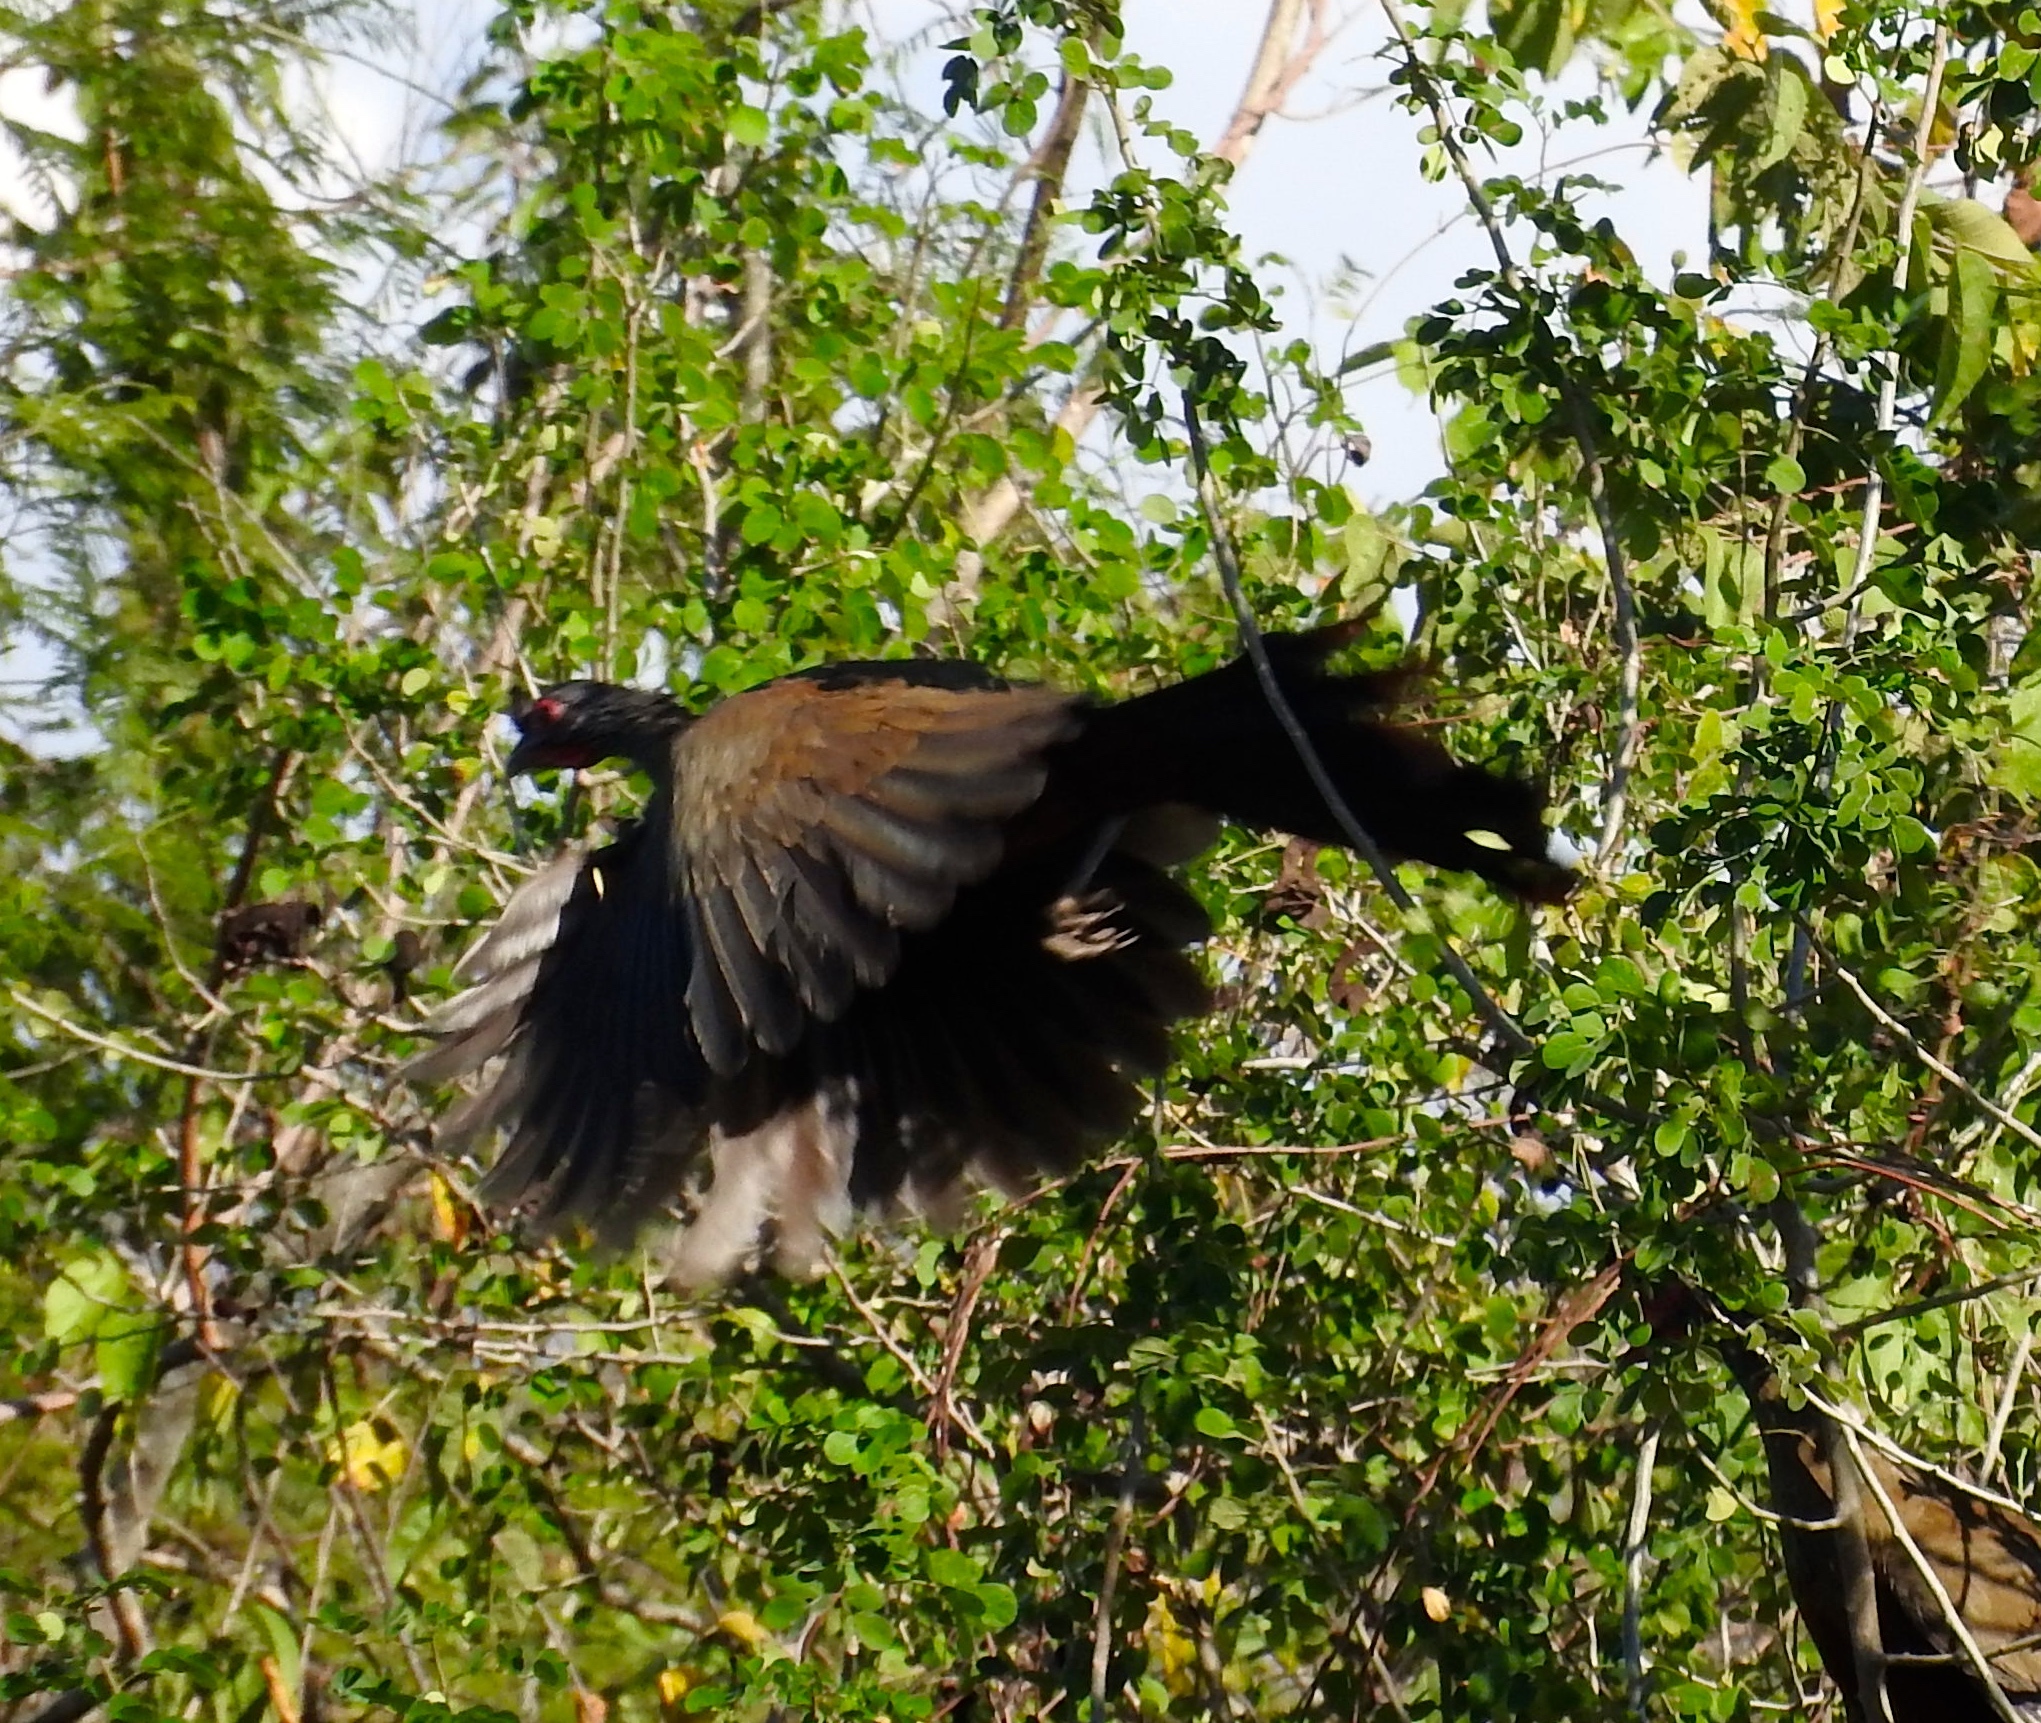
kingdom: Animalia
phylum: Chordata
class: Aves
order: Galliformes
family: Cracidae
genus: Ortalis
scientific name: Ortalis wagleri
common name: Rufous-bellied chachalaca
